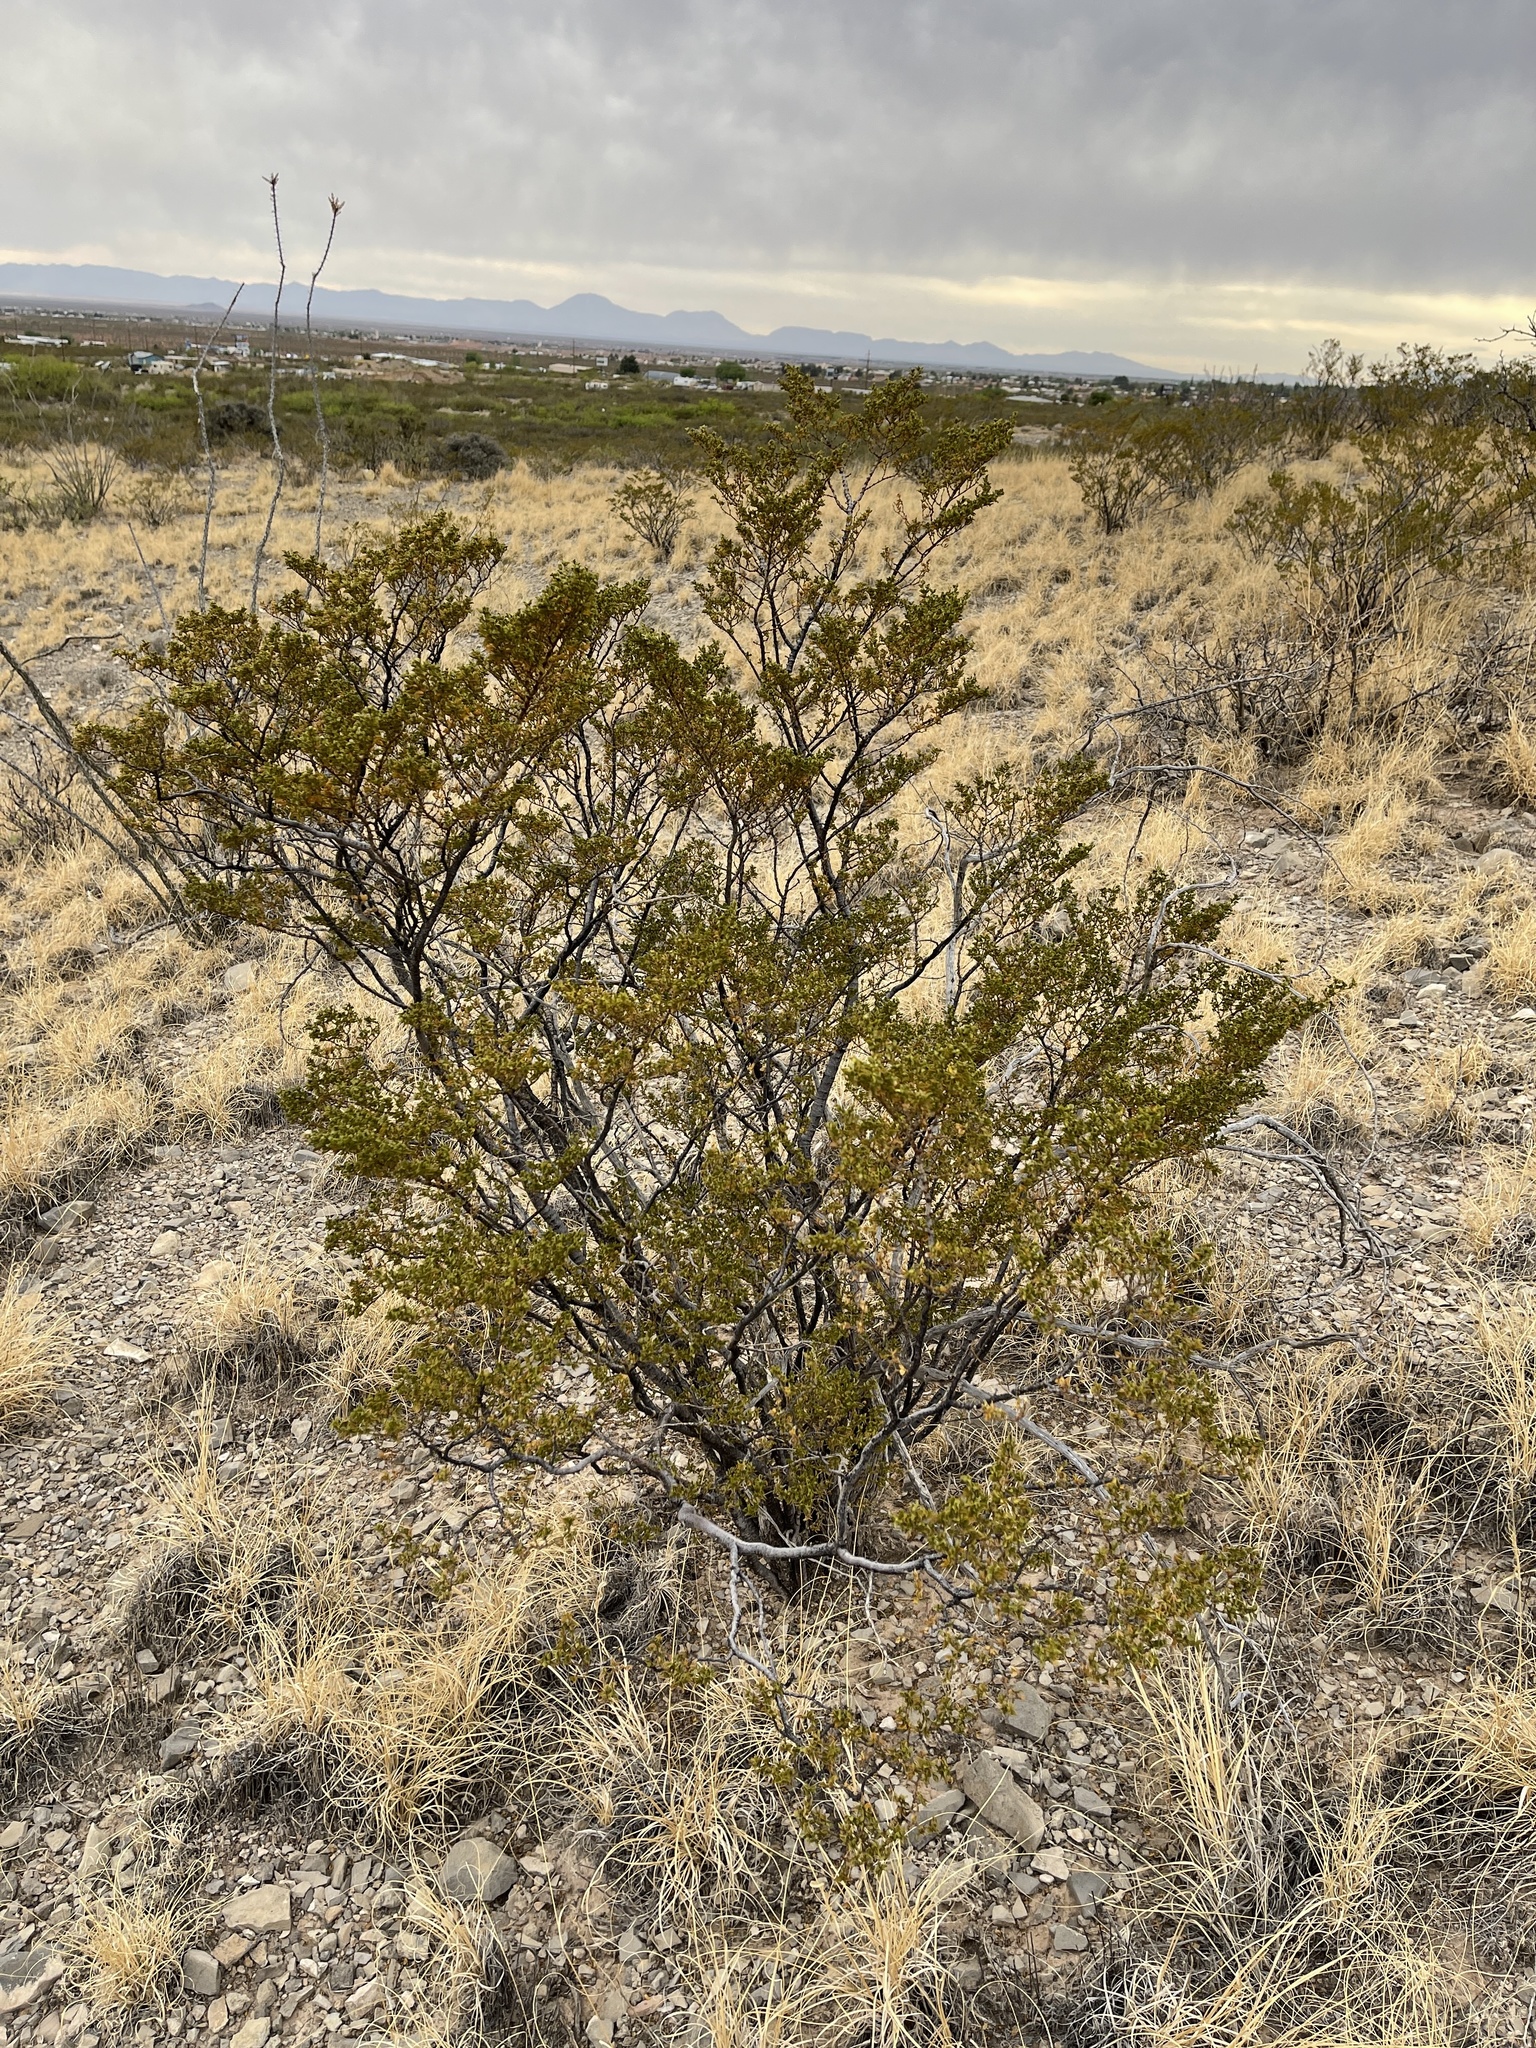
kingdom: Plantae
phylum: Tracheophyta
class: Magnoliopsida
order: Zygophyllales
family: Zygophyllaceae
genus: Larrea
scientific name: Larrea tridentata
